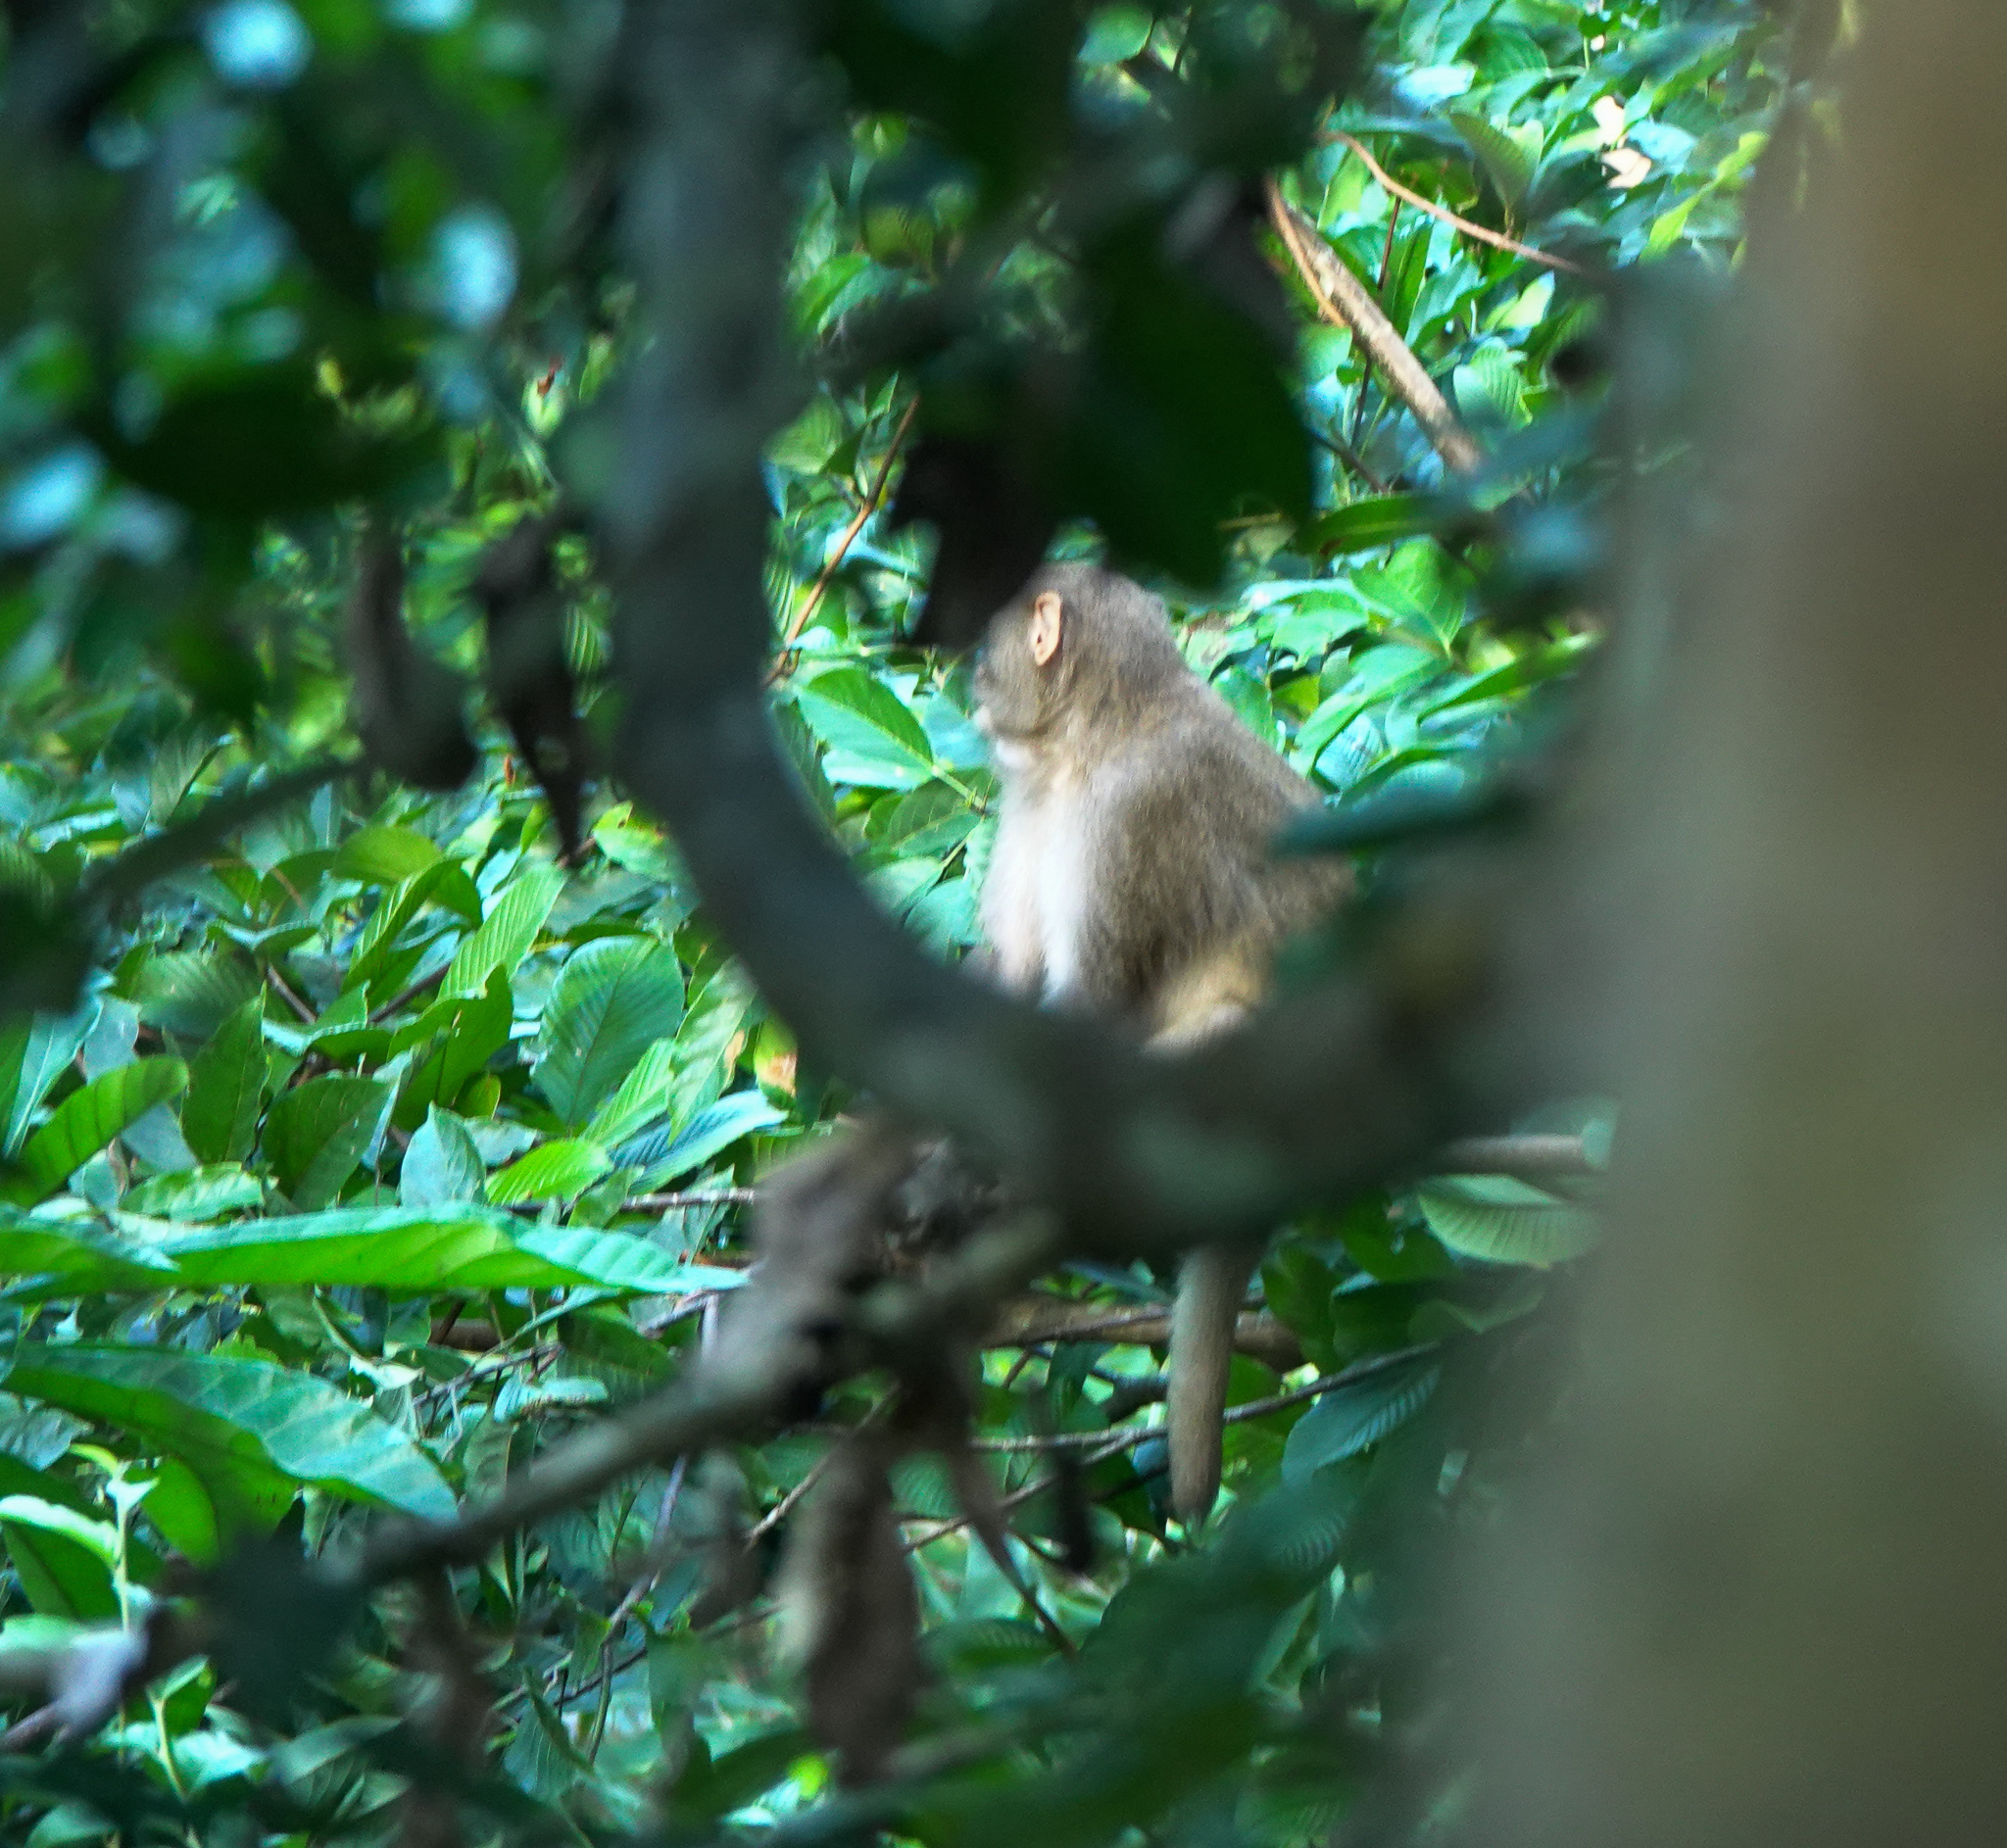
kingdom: Animalia
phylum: Chordata
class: Mammalia
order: Primates
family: Cercopithecidae
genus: Macaca
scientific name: Macaca mulatta
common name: Rhesus monkey
